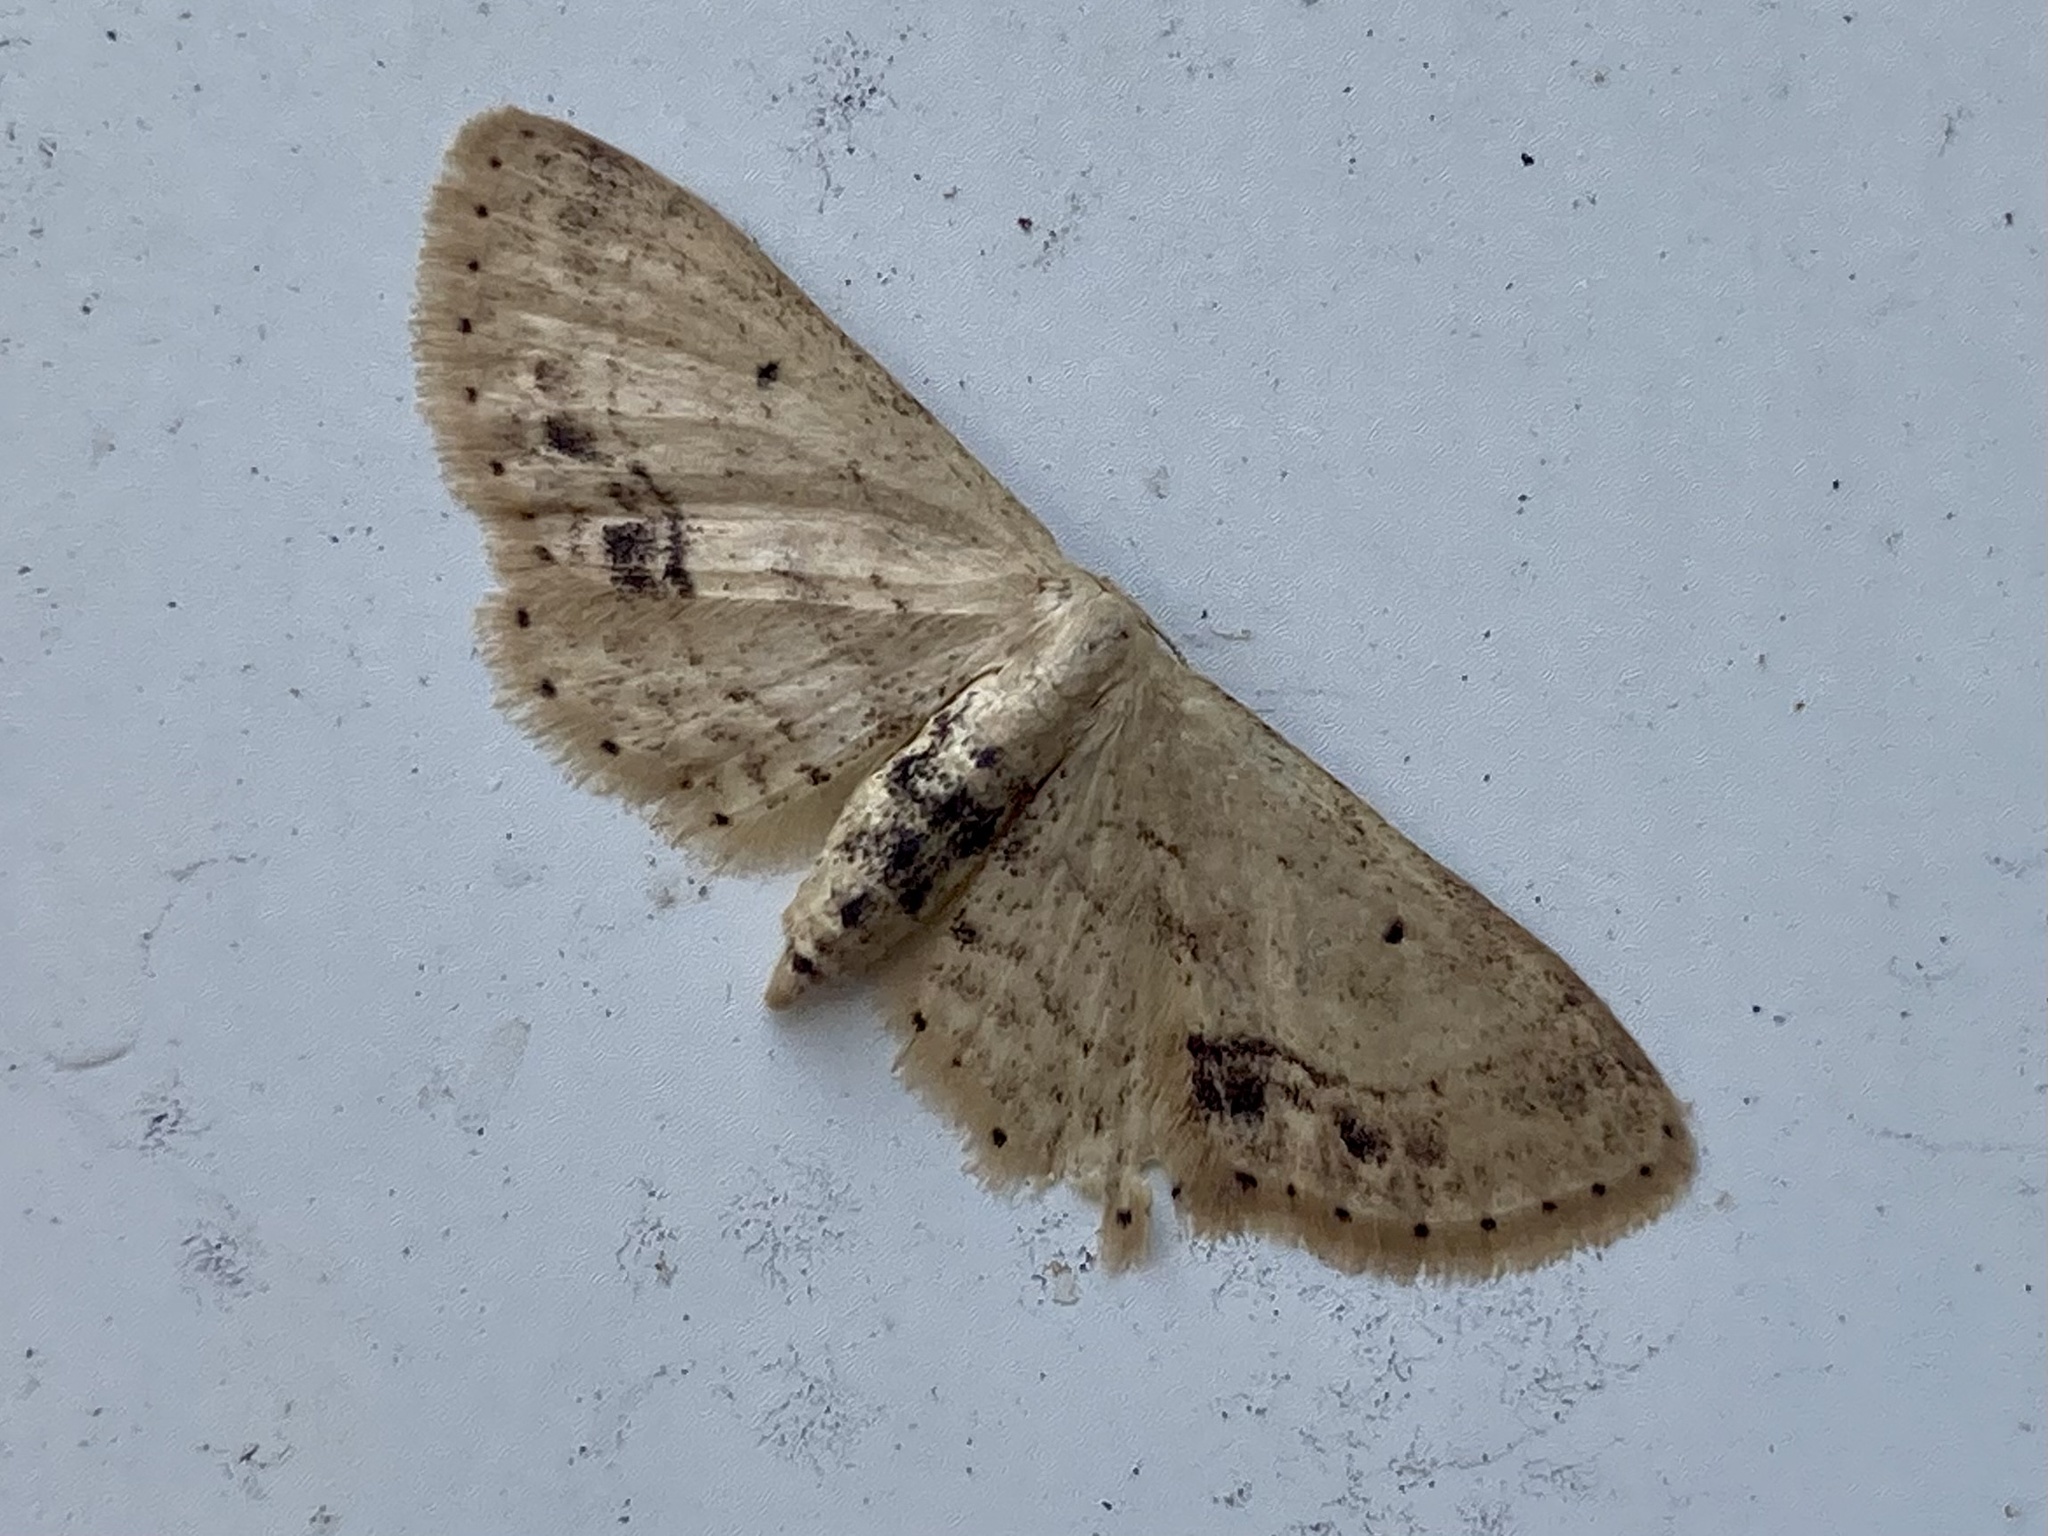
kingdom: Animalia
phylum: Arthropoda
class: Insecta
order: Lepidoptera
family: Geometridae
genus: Idaea
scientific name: Idaea dimidiata
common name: Single-dotted wave
